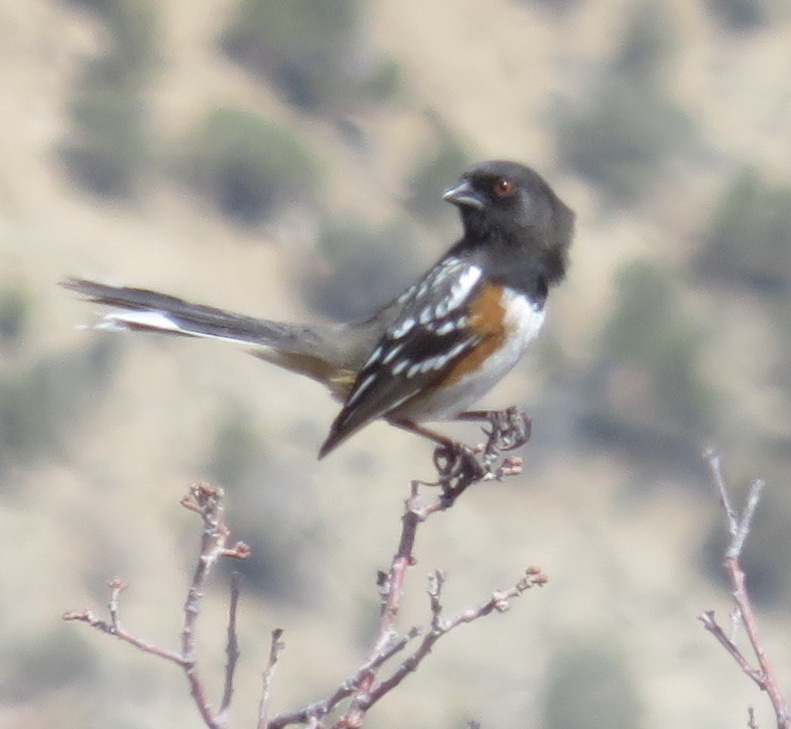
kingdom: Animalia
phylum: Chordata
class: Aves
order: Passeriformes
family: Passerellidae
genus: Pipilo
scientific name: Pipilo maculatus
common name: Spotted towhee
